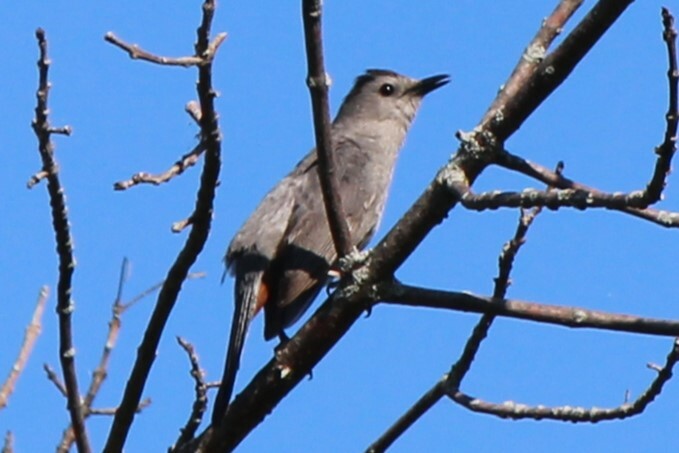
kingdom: Animalia
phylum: Chordata
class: Aves
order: Passeriformes
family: Mimidae
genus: Dumetella
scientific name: Dumetella carolinensis
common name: Gray catbird
